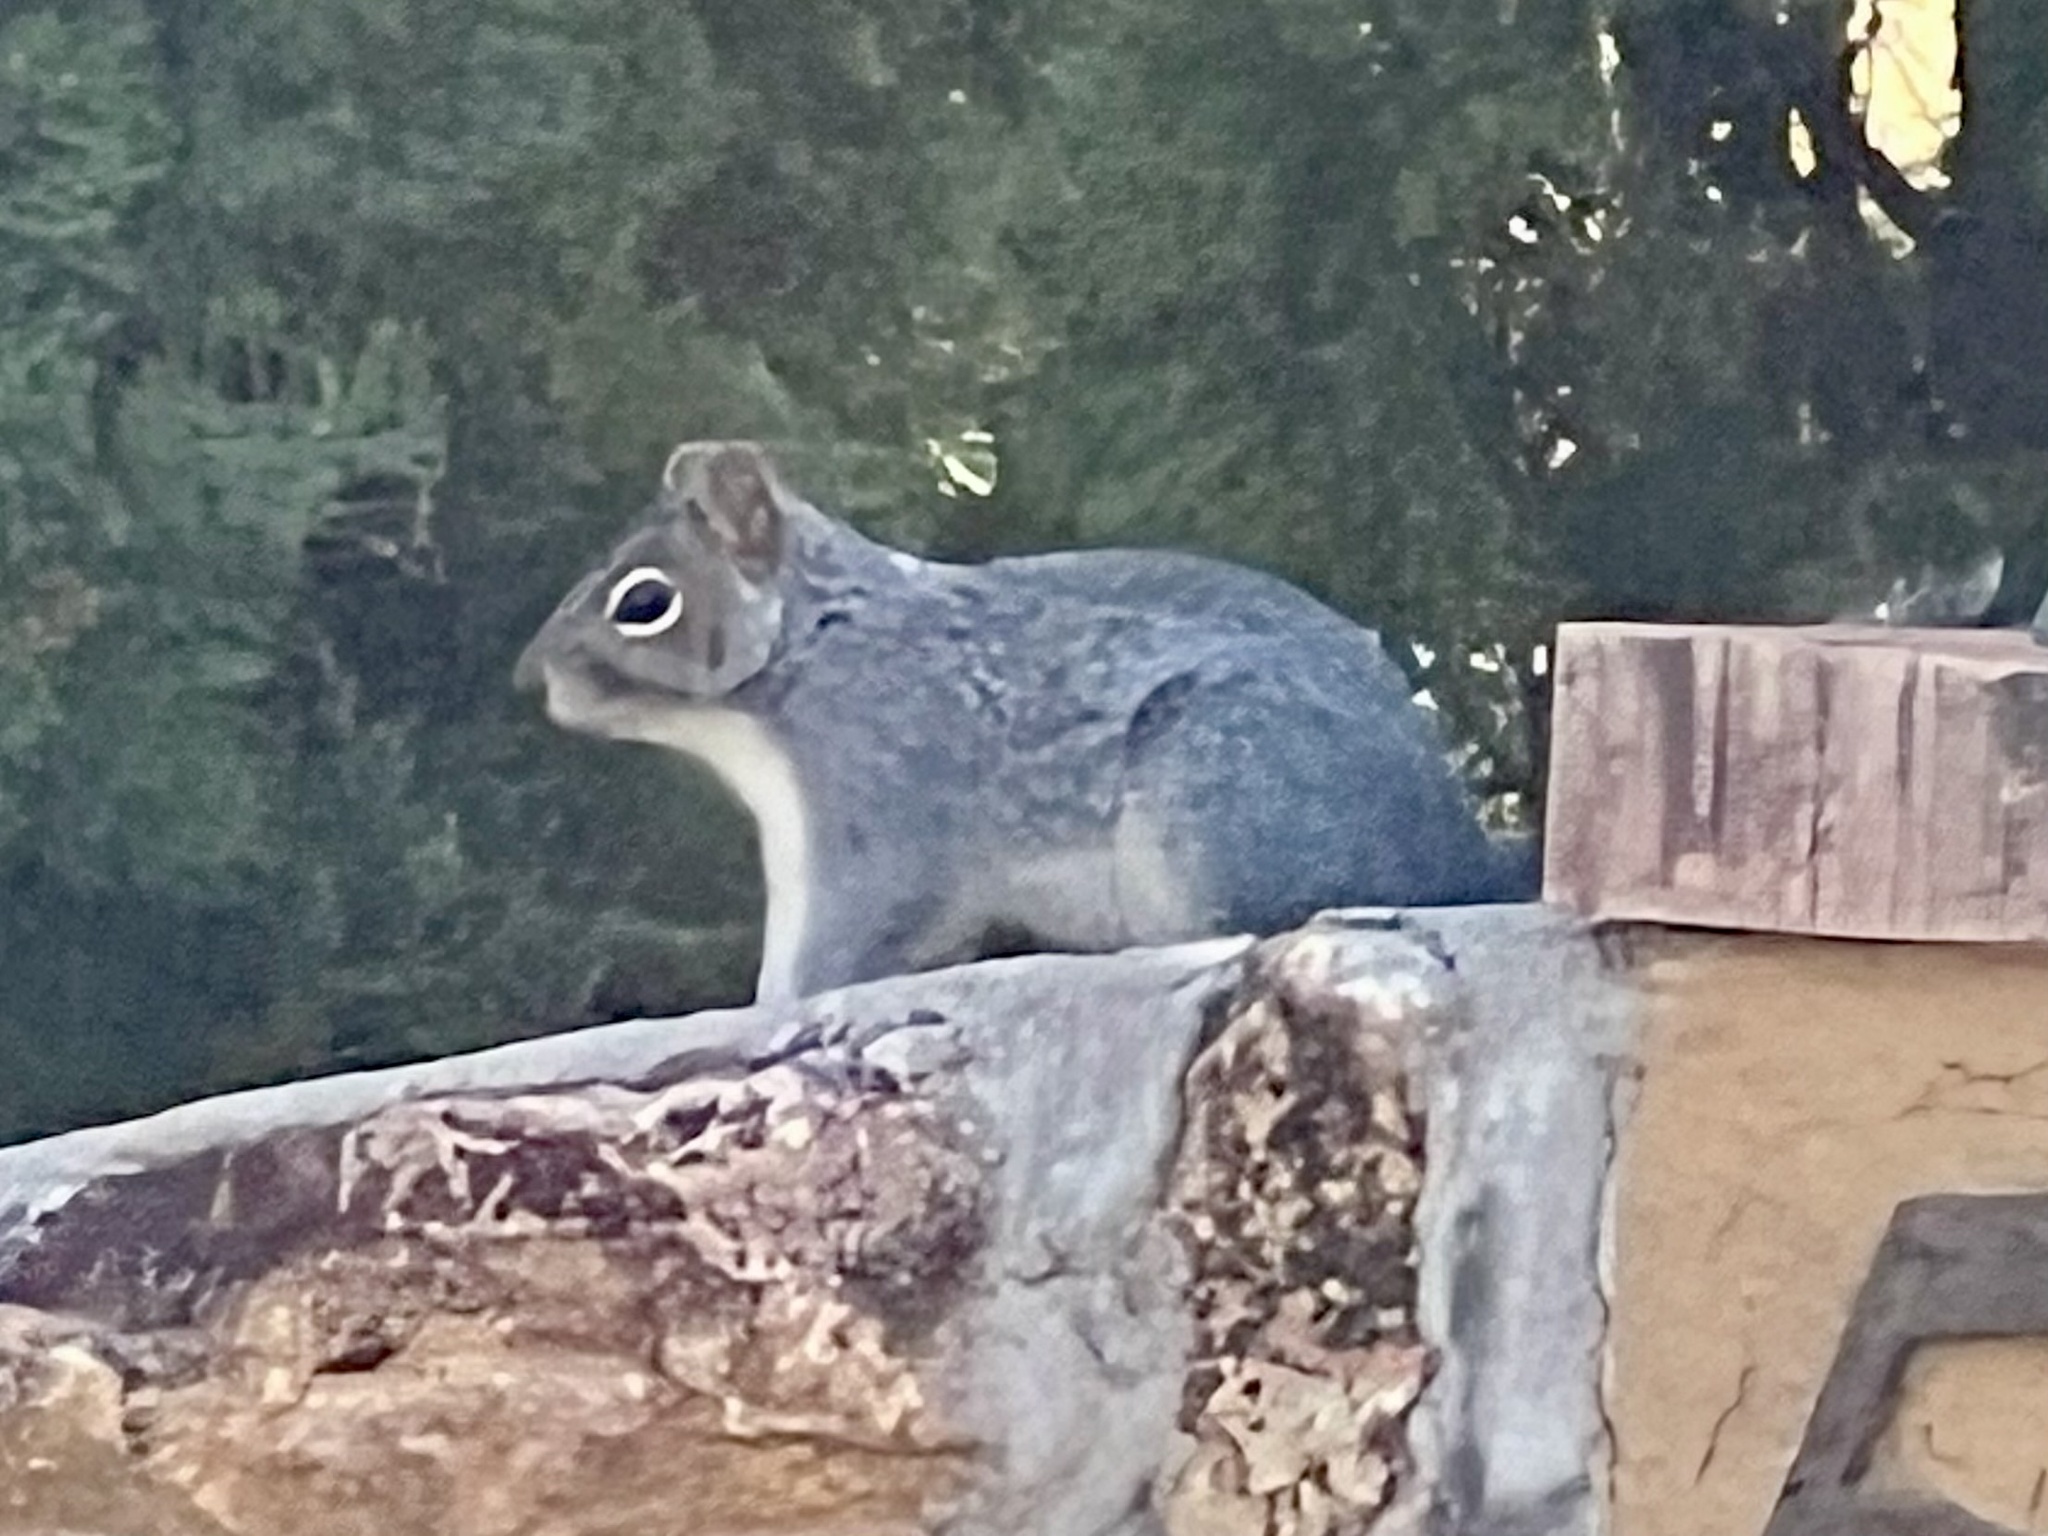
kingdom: Animalia
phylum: Chordata
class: Mammalia
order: Rodentia
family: Sciuridae
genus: Sciurus
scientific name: Sciurus arizonensis
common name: Arizona gray squirrel
